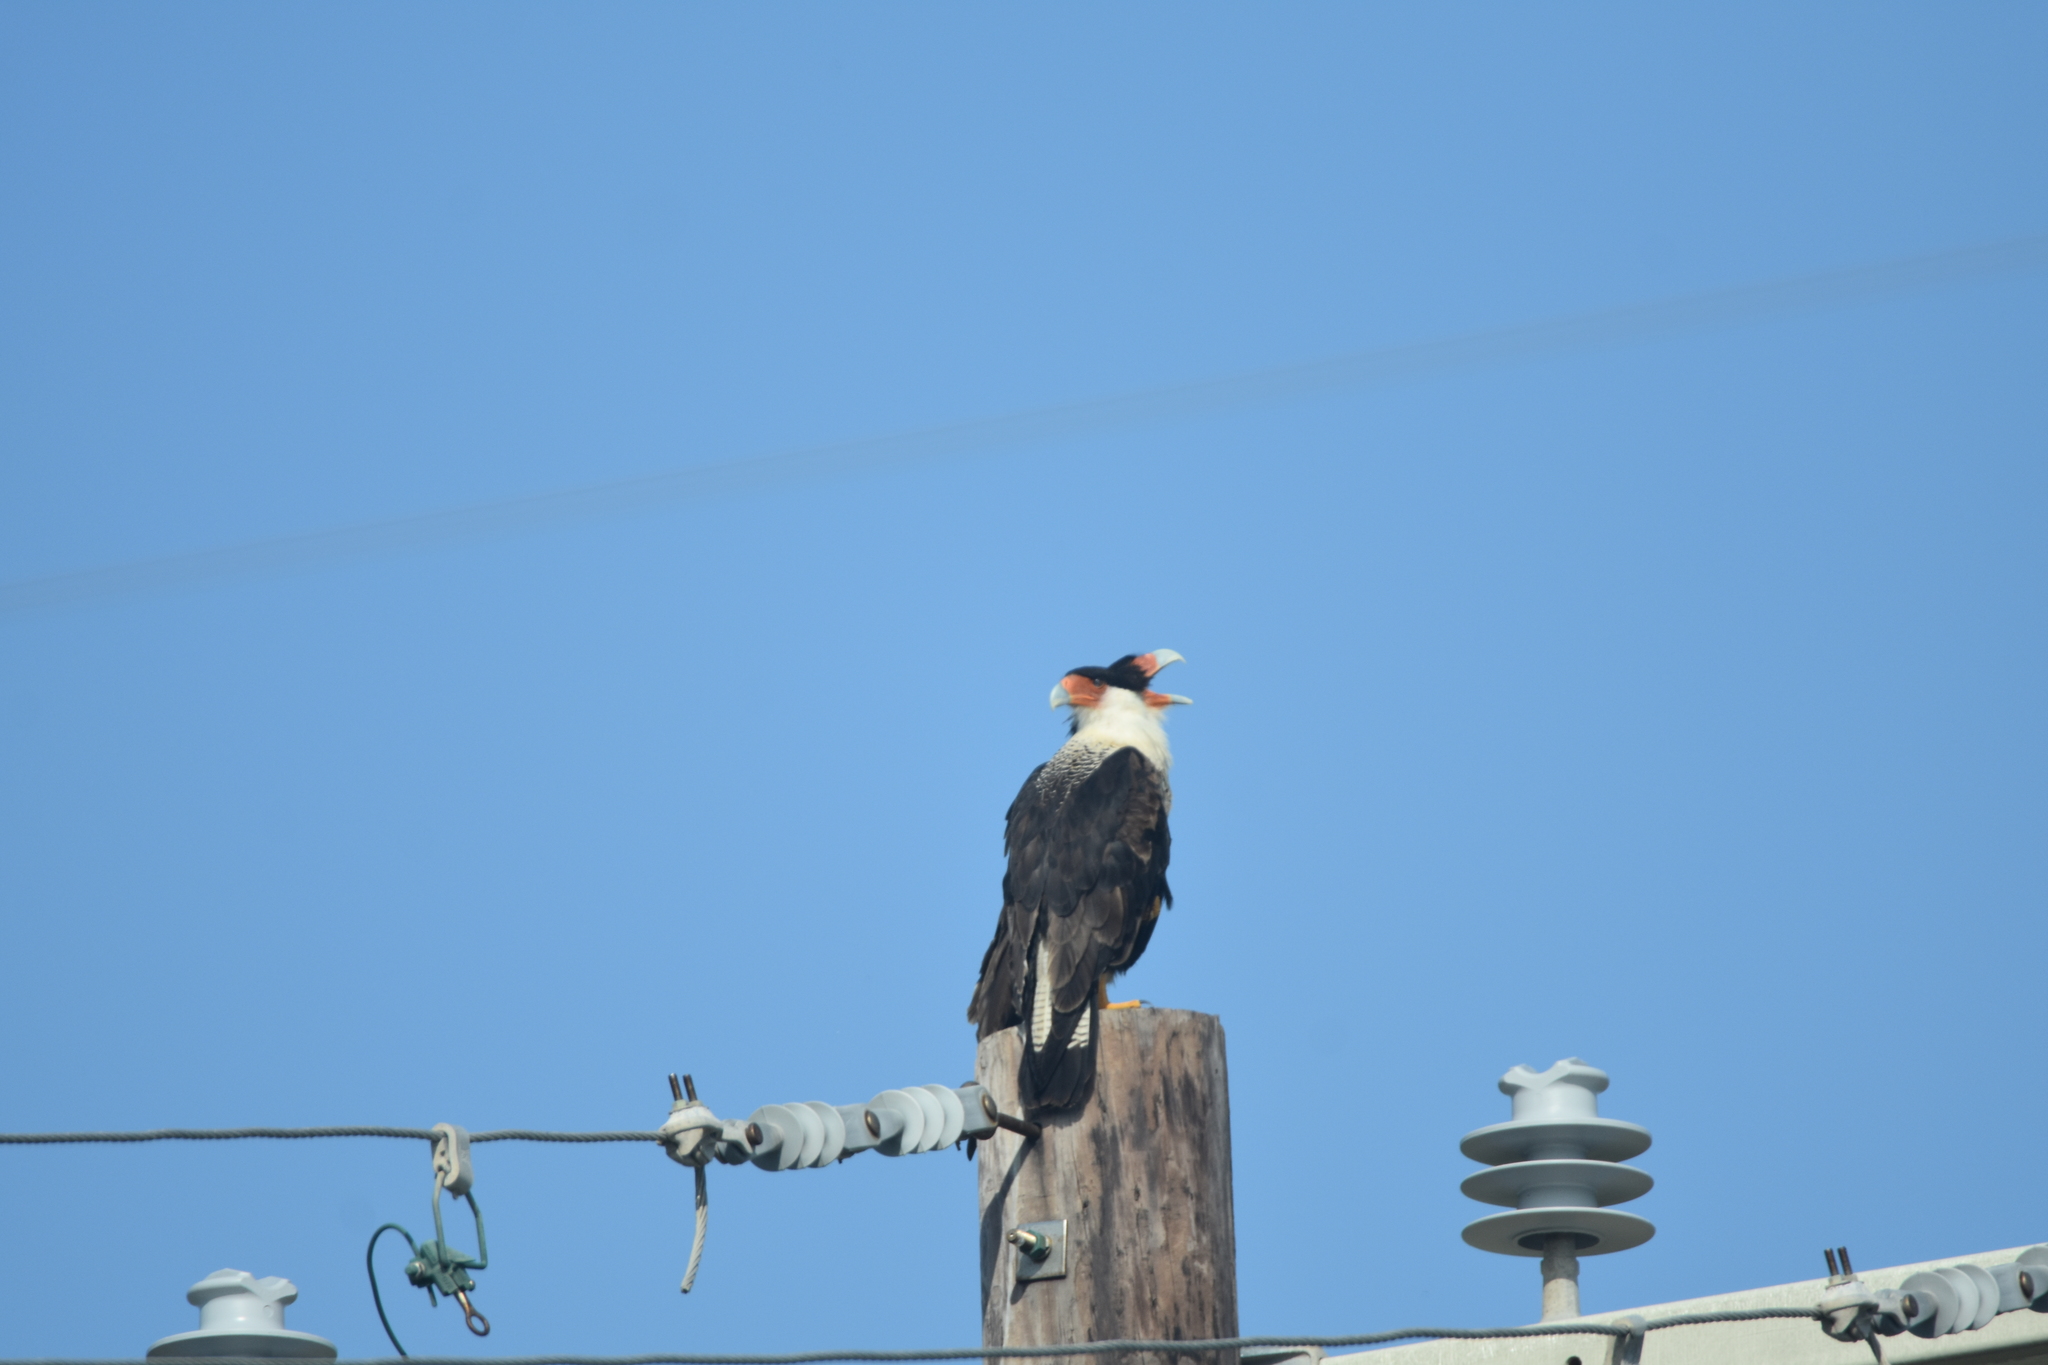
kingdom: Animalia
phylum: Chordata
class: Aves
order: Falconiformes
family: Falconidae
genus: Caracara
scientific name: Caracara plancus
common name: Southern caracara
